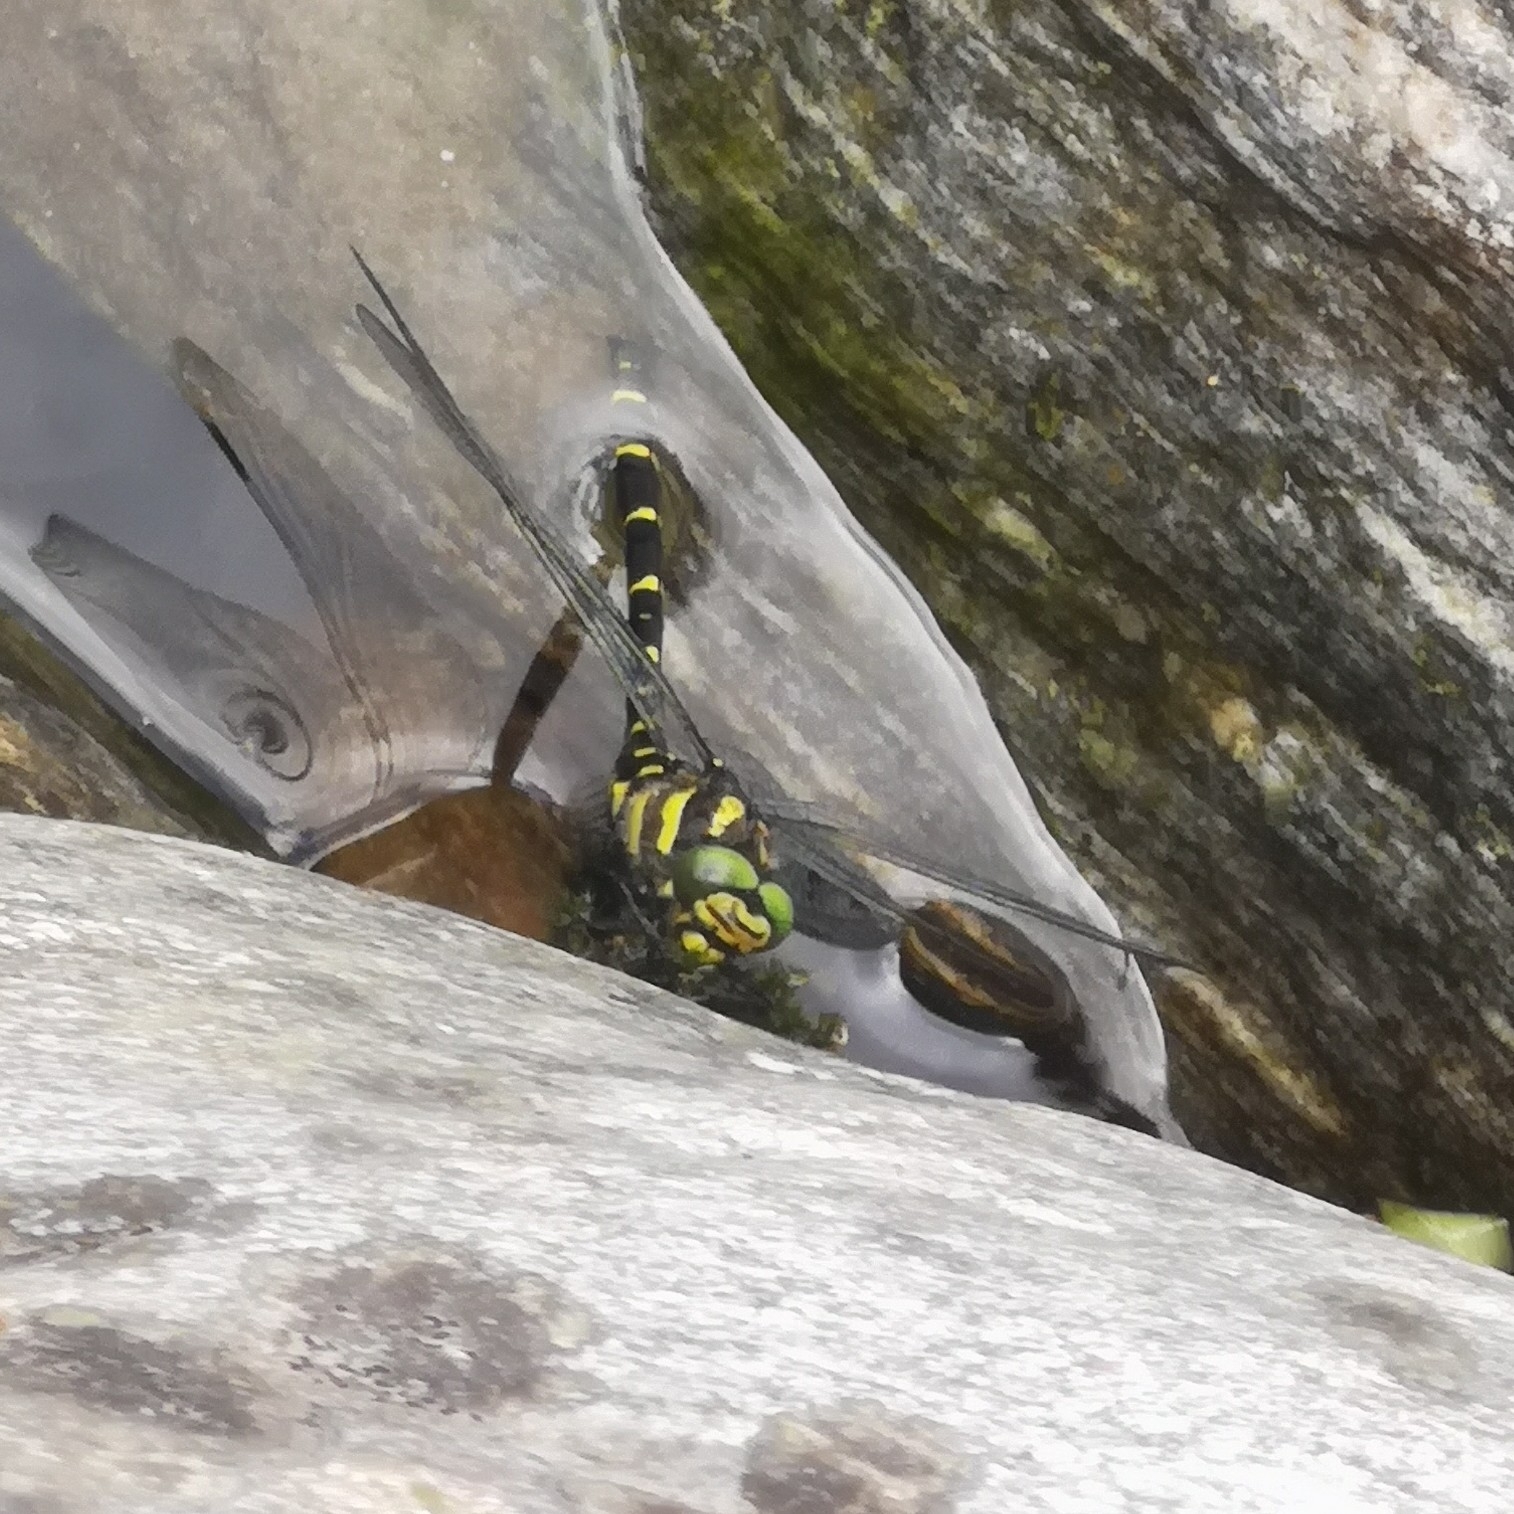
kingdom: Animalia
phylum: Arthropoda
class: Insecta
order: Odonata
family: Cordulegastridae
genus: Cordulegaster
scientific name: Cordulegaster bidentata
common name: Sombre goldenring
